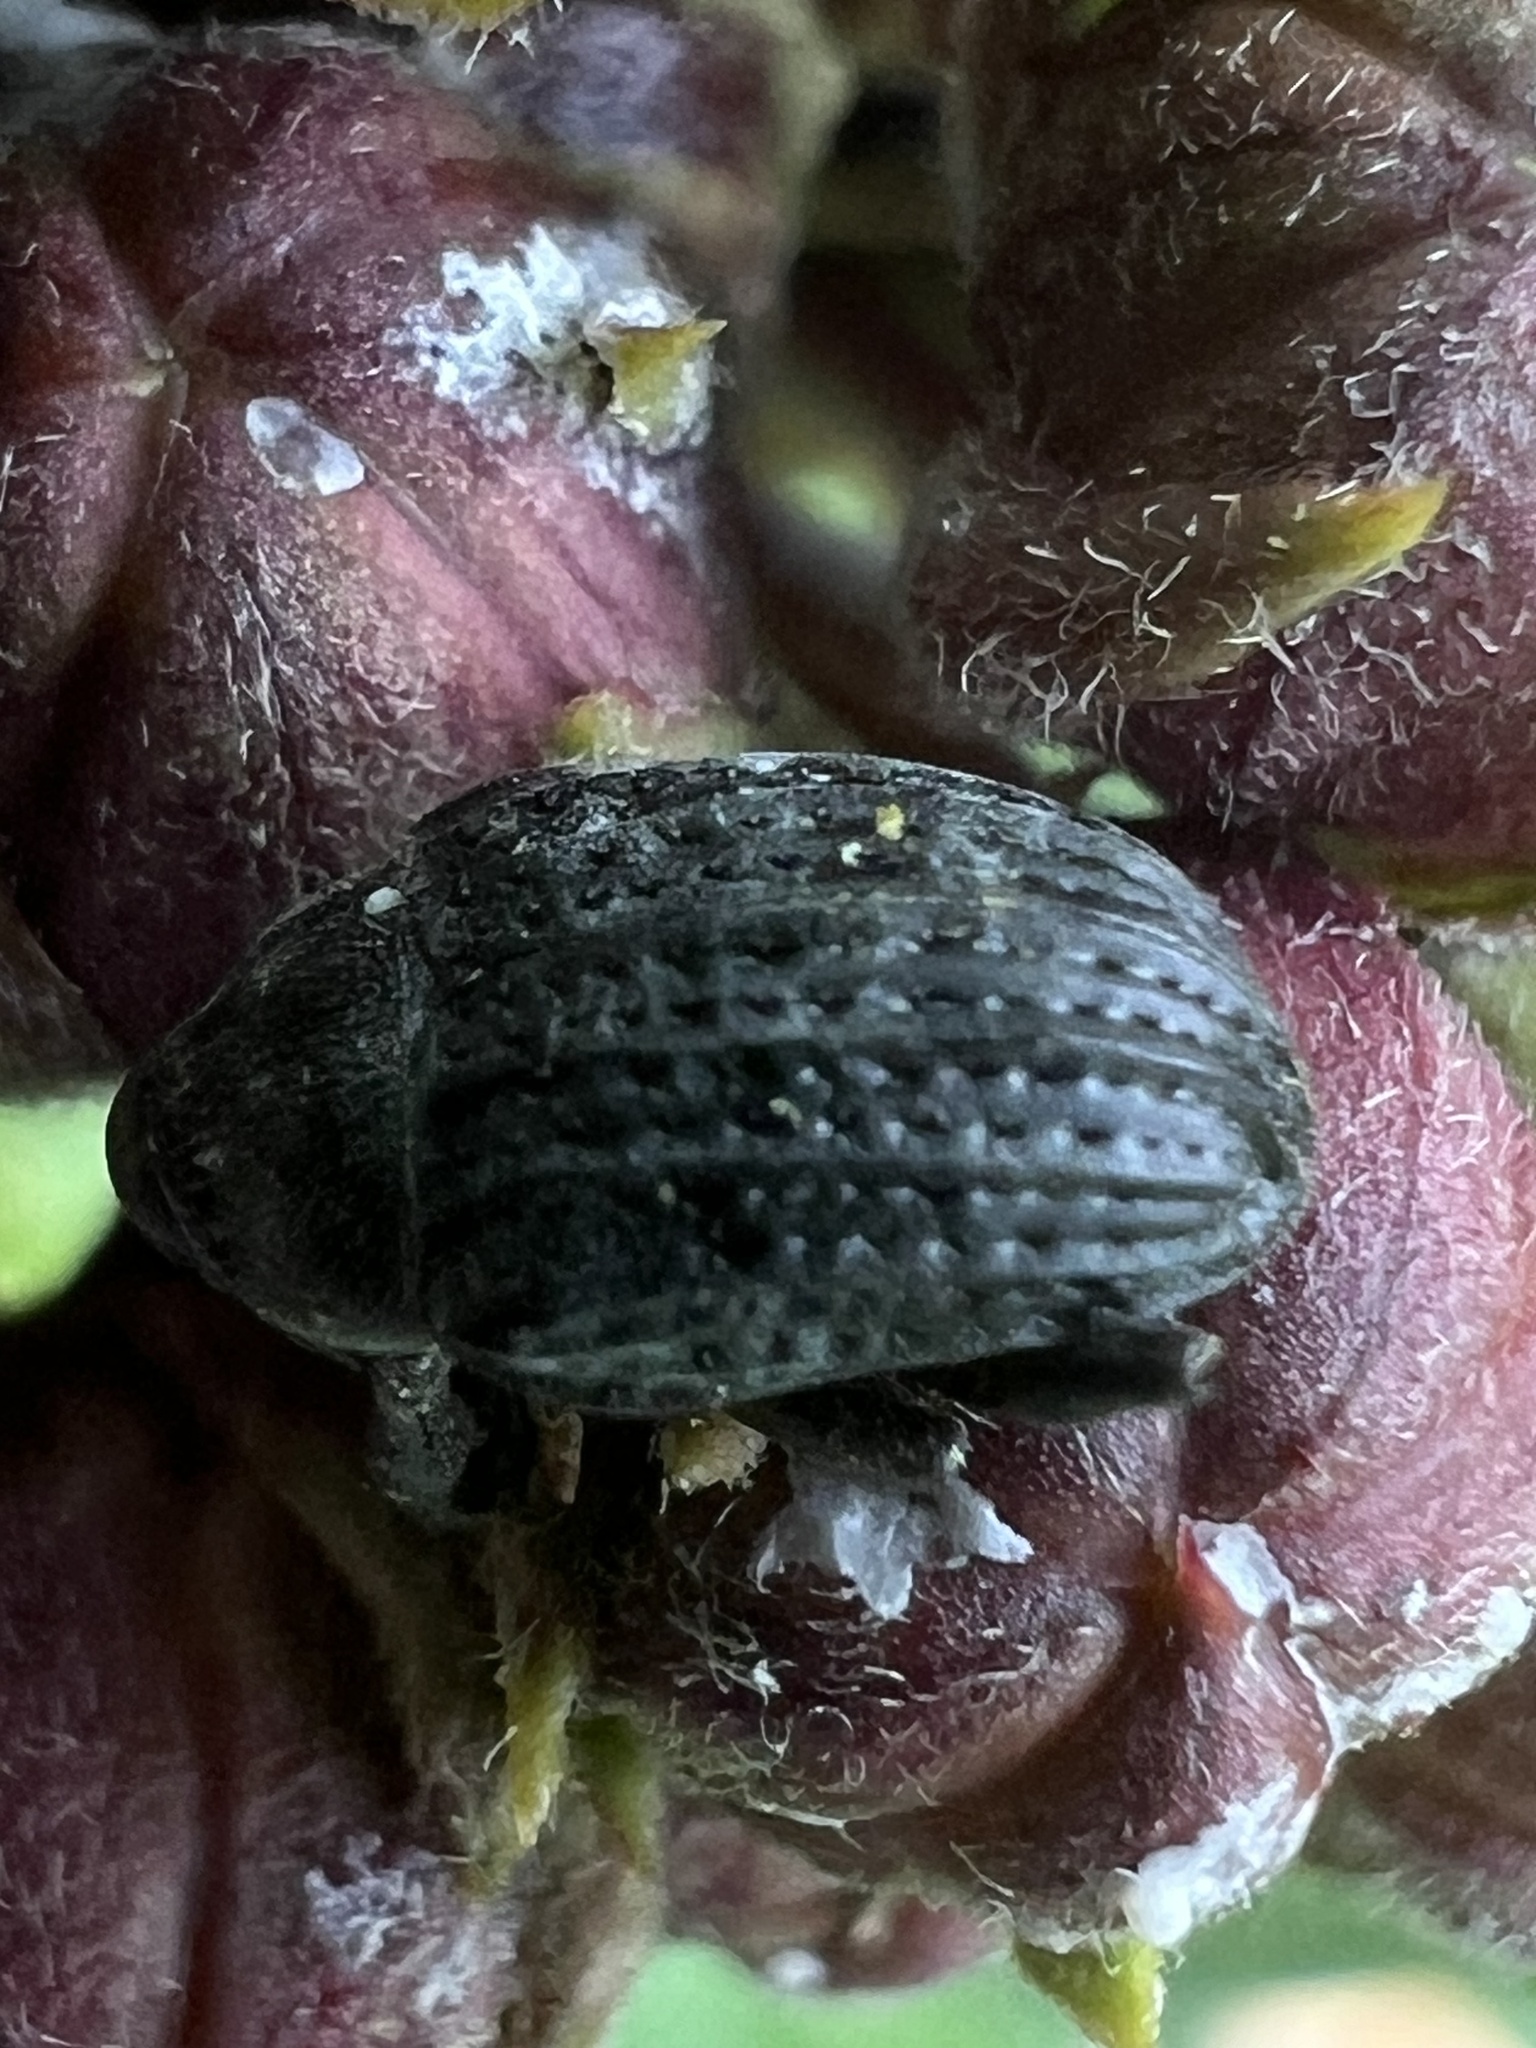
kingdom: Animalia
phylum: Arthropoda
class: Insecta
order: Coleoptera
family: Curculionidae
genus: Rhyssomatus
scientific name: Rhyssomatus lineaticollis
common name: Milkweed stem weevil
